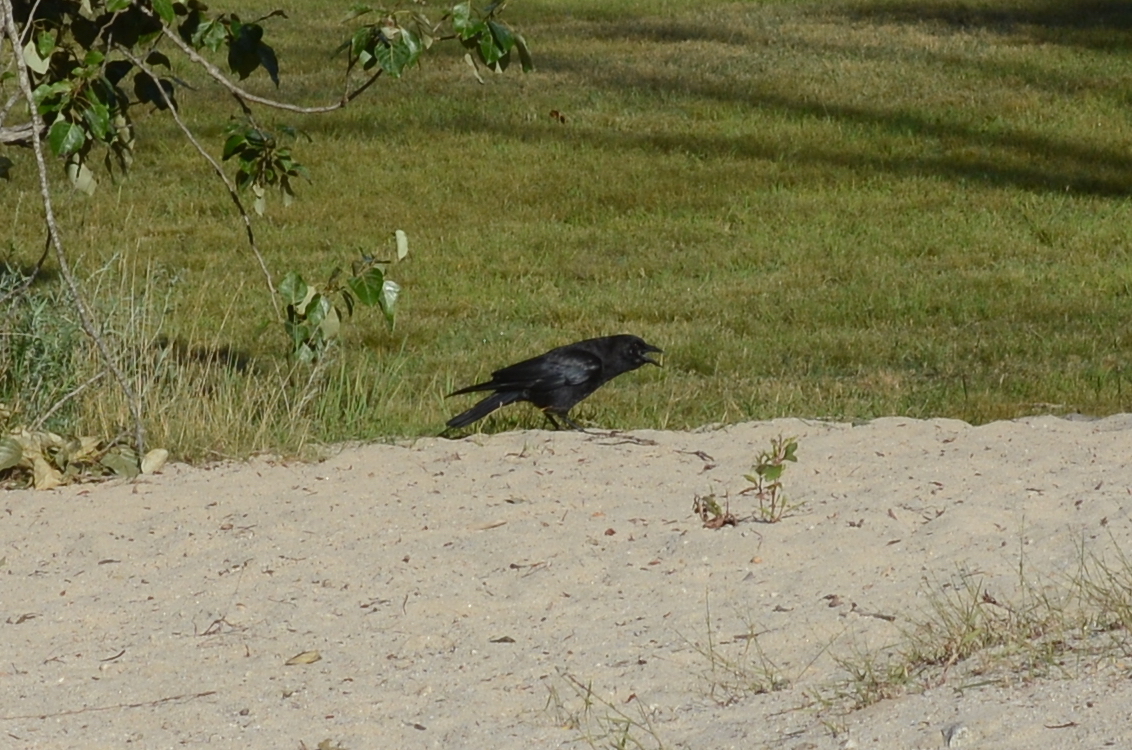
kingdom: Animalia
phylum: Chordata
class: Aves
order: Passeriformes
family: Corvidae
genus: Corvus
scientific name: Corvus brachyrhynchos
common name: American crow
